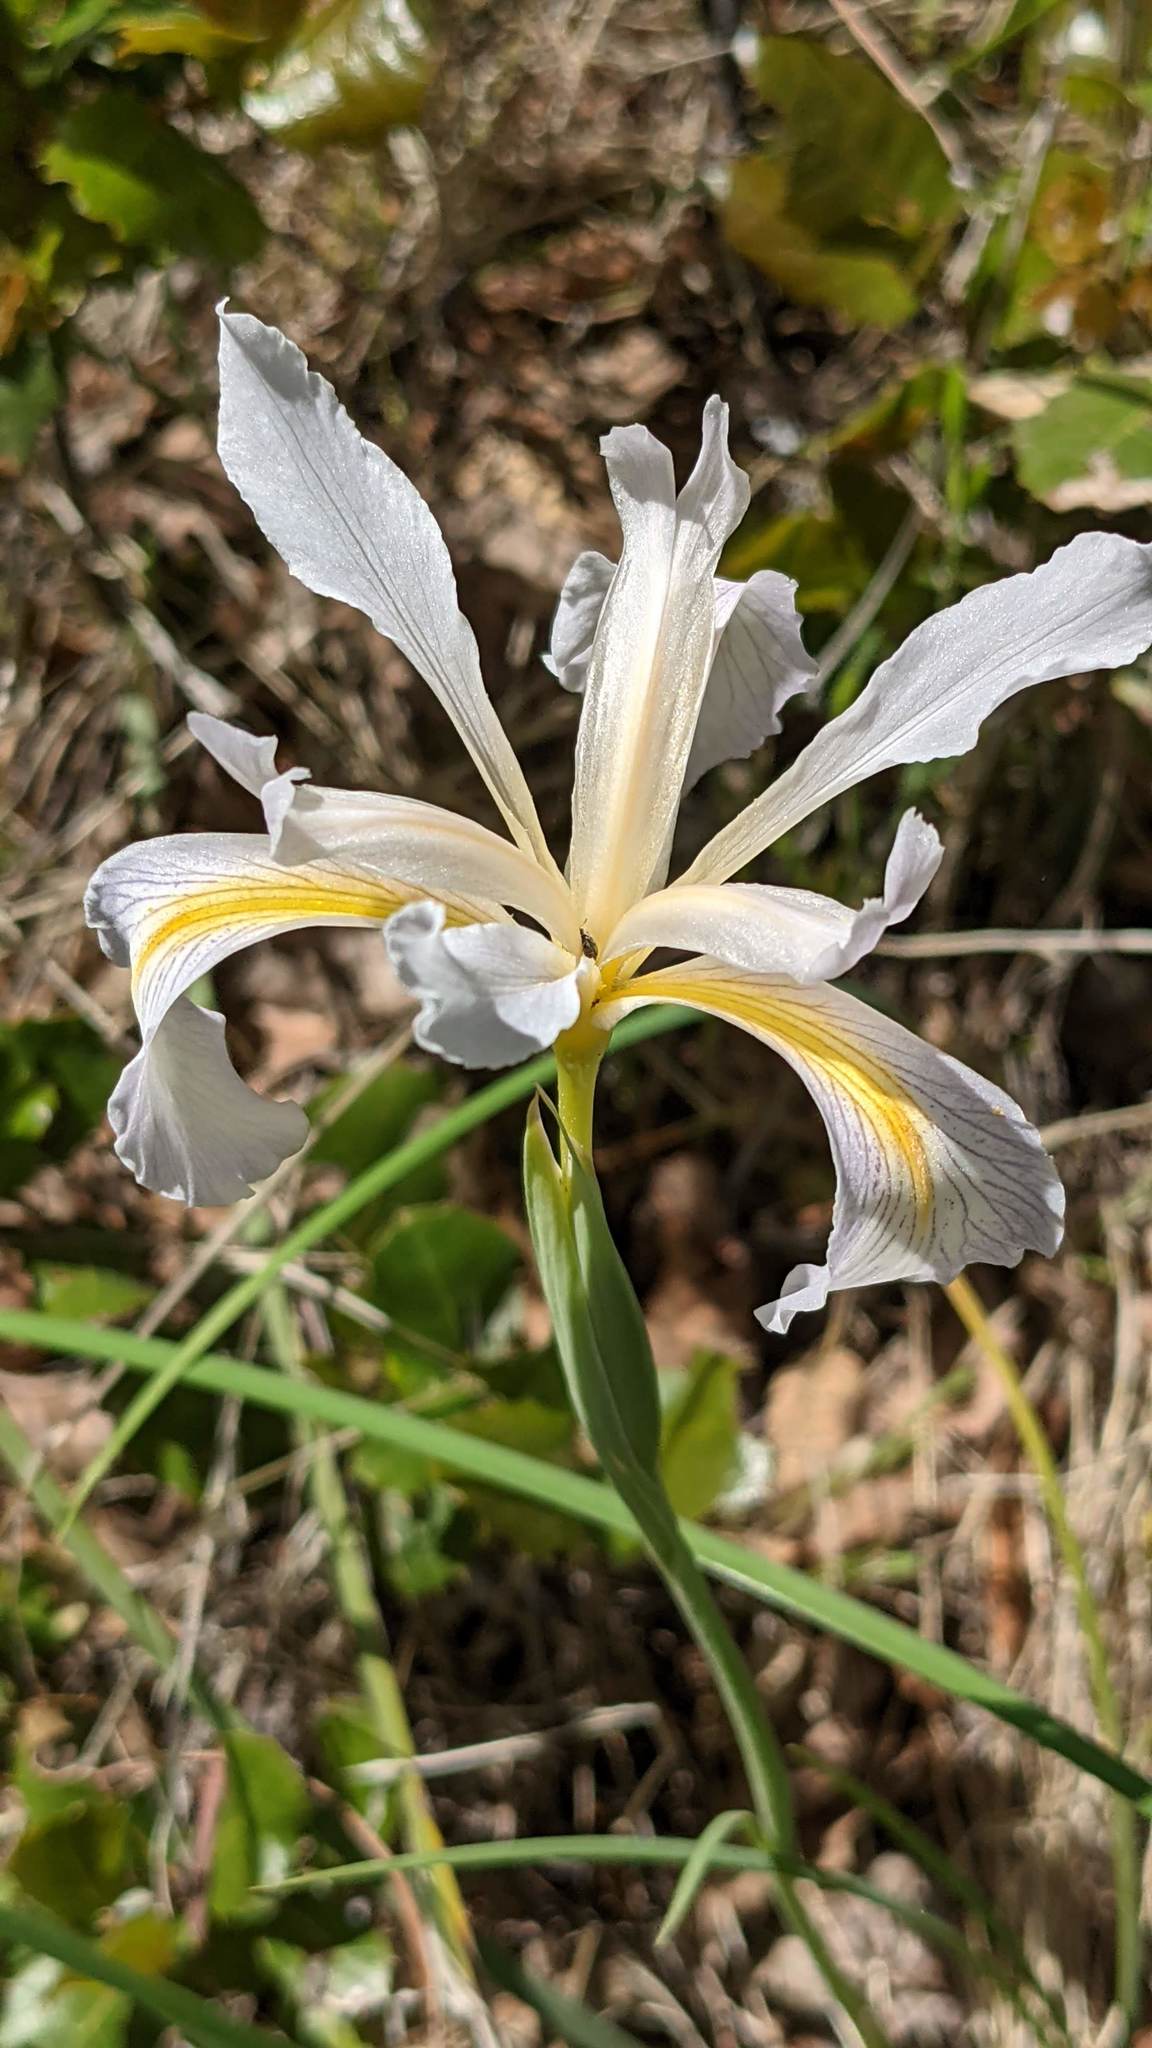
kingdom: Plantae
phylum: Tracheophyta
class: Liliopsida
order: Asparagales
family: Iridaceae
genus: Iris
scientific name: Iris macrosiphon
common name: Ground iris
